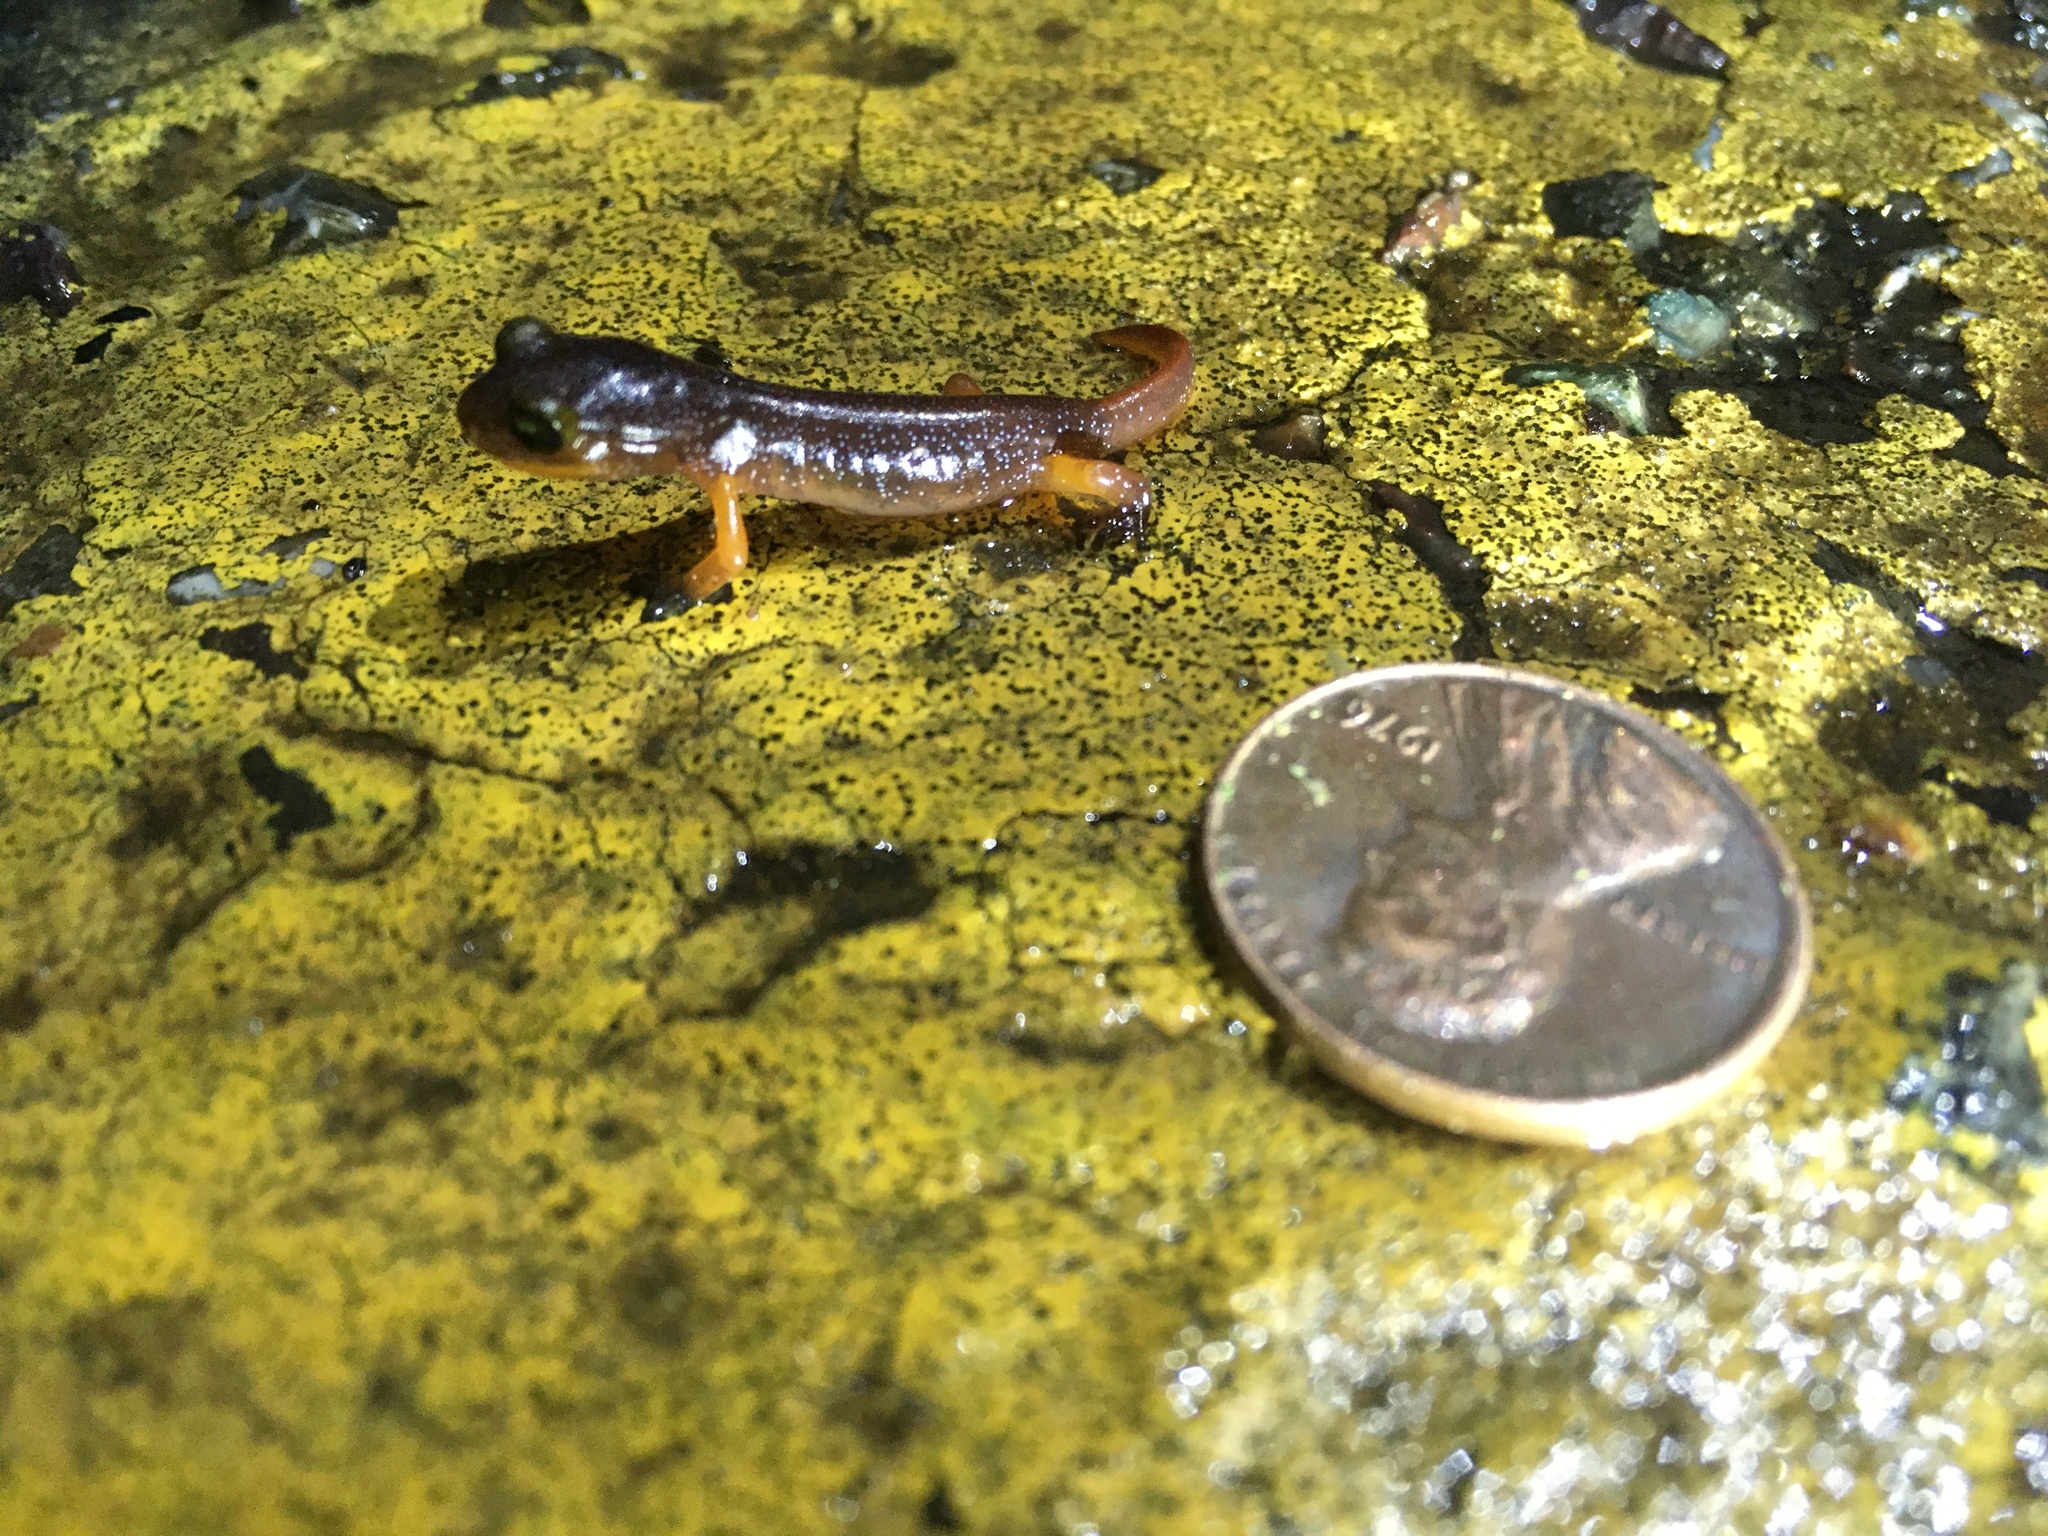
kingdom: Animalia
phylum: Chordata
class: Amphibia
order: Caudata
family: Plethodontidae
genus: Ensatina
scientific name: Ensatina eschscholtzii
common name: Ensatina
